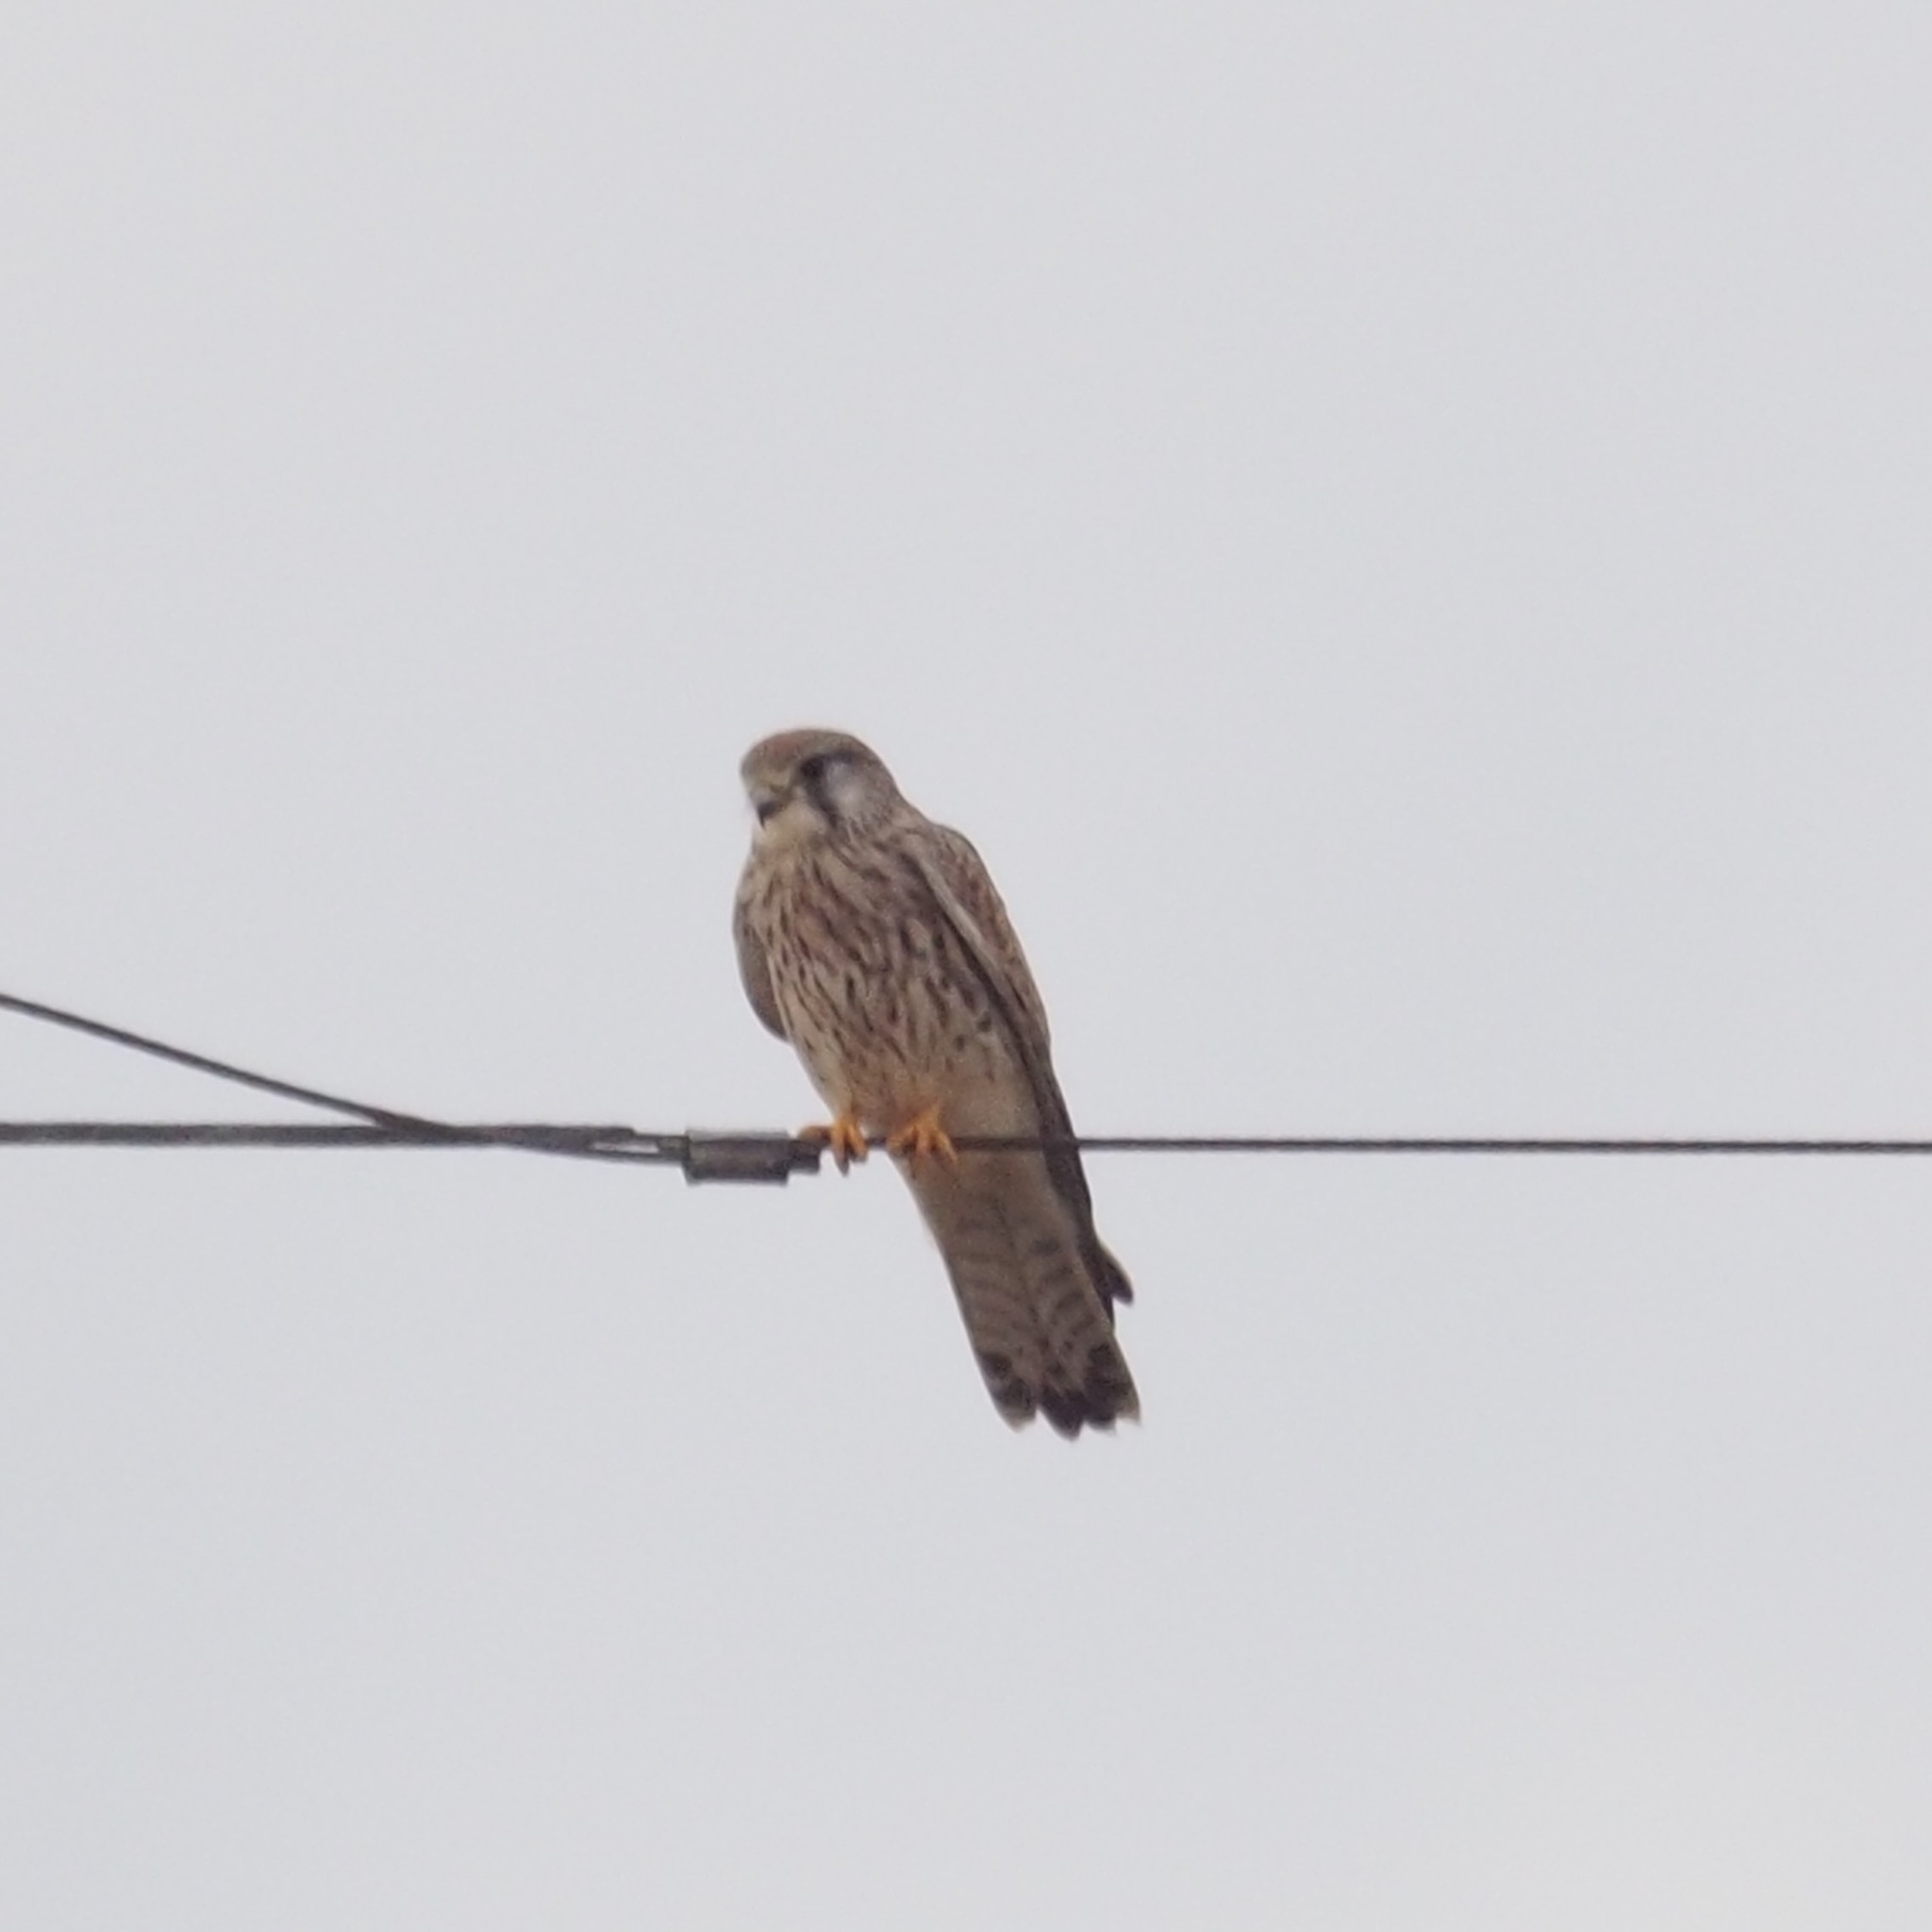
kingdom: Animalia
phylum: Chordata
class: Aves
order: Falconiformes
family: Falconidae
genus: Falco
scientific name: Falco tinnunculus
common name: Common kestrel
